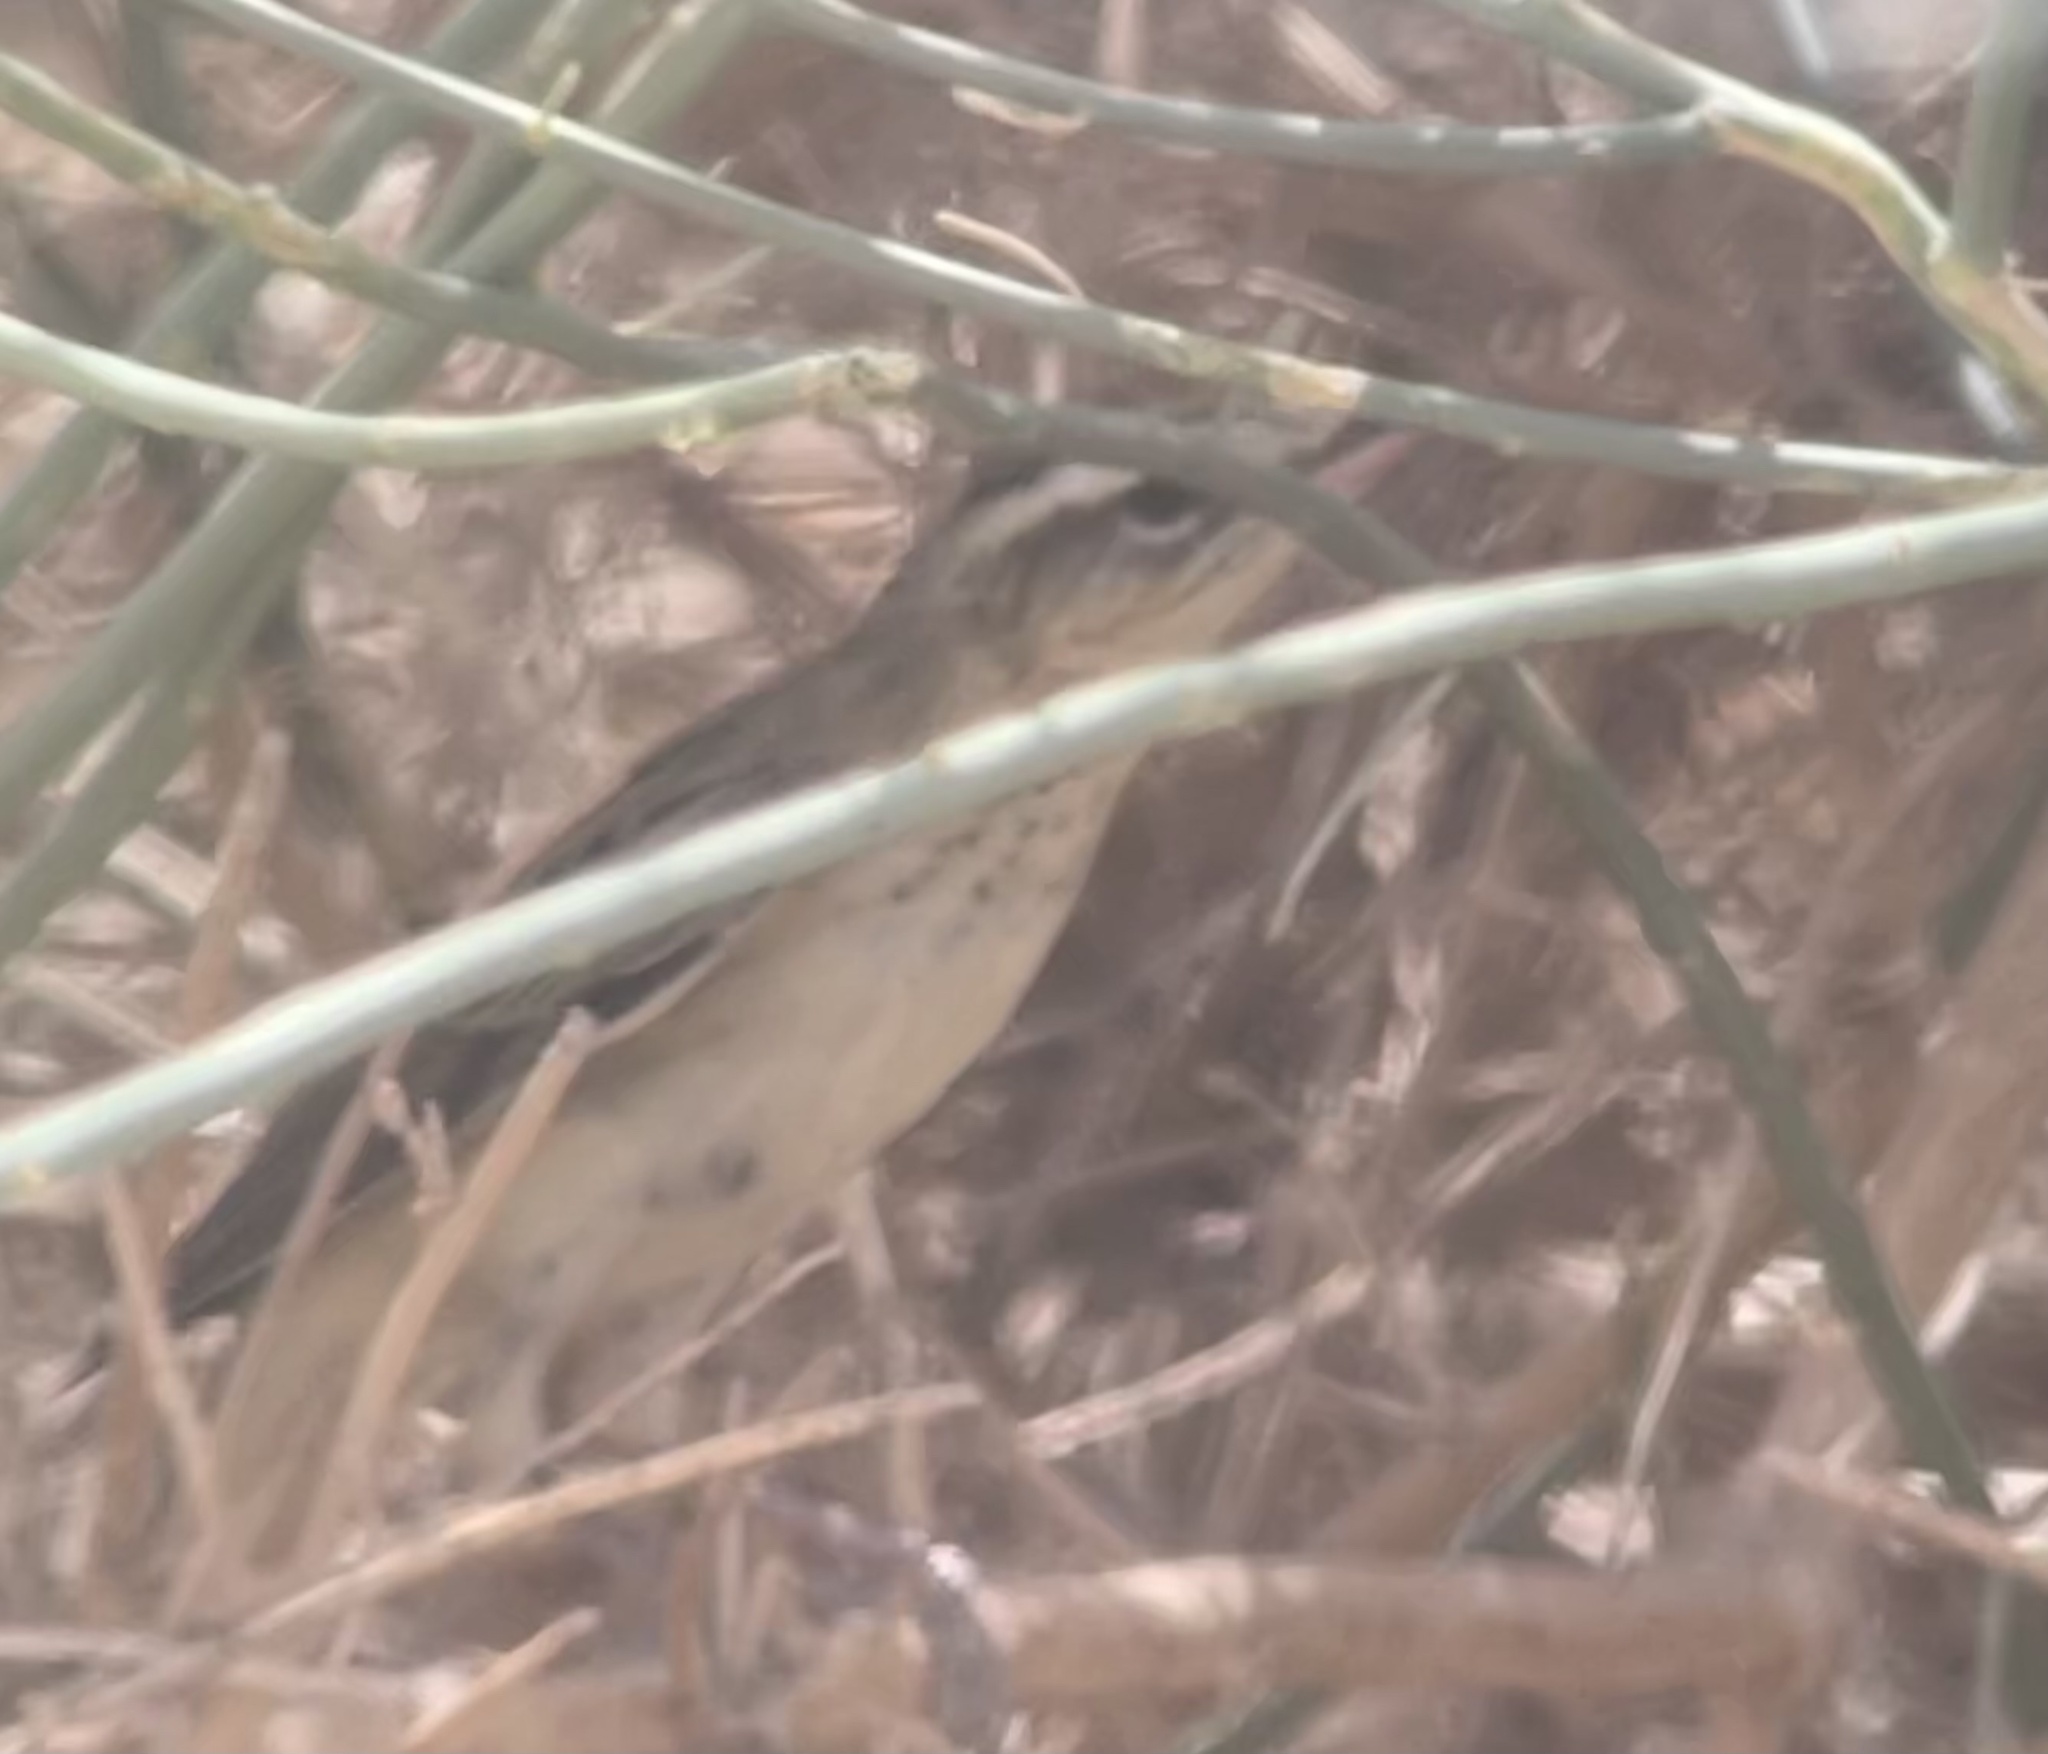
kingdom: Animalia
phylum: Chordata
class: Aves
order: Passeriformes
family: Acrocephalidae
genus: Acrocephalus
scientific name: Acrocephalus schoenobaenus
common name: Sedge warbler
